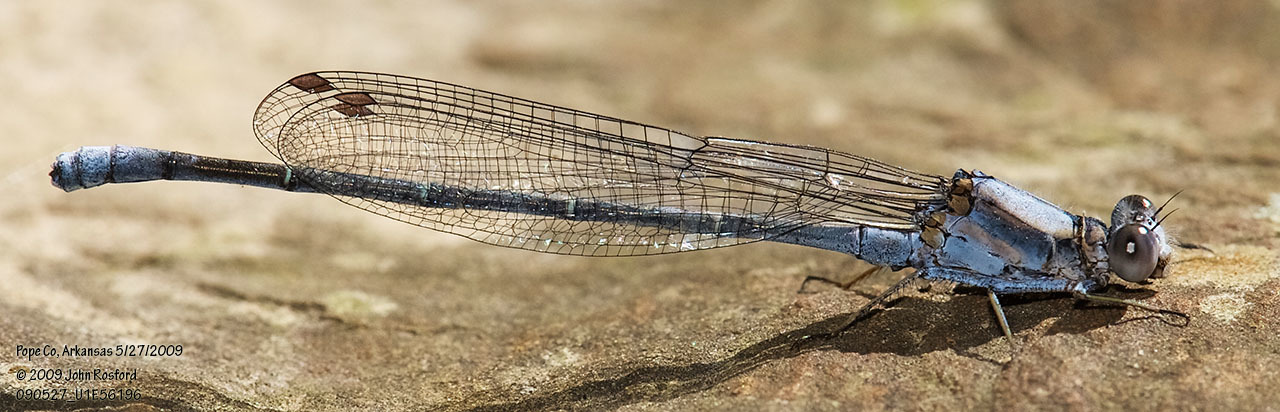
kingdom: Animalia
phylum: Arthropoda
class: Insecta
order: Odonata
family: Coenagrionidae
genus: Argia
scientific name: Argia moesta
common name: Powdered dancer
